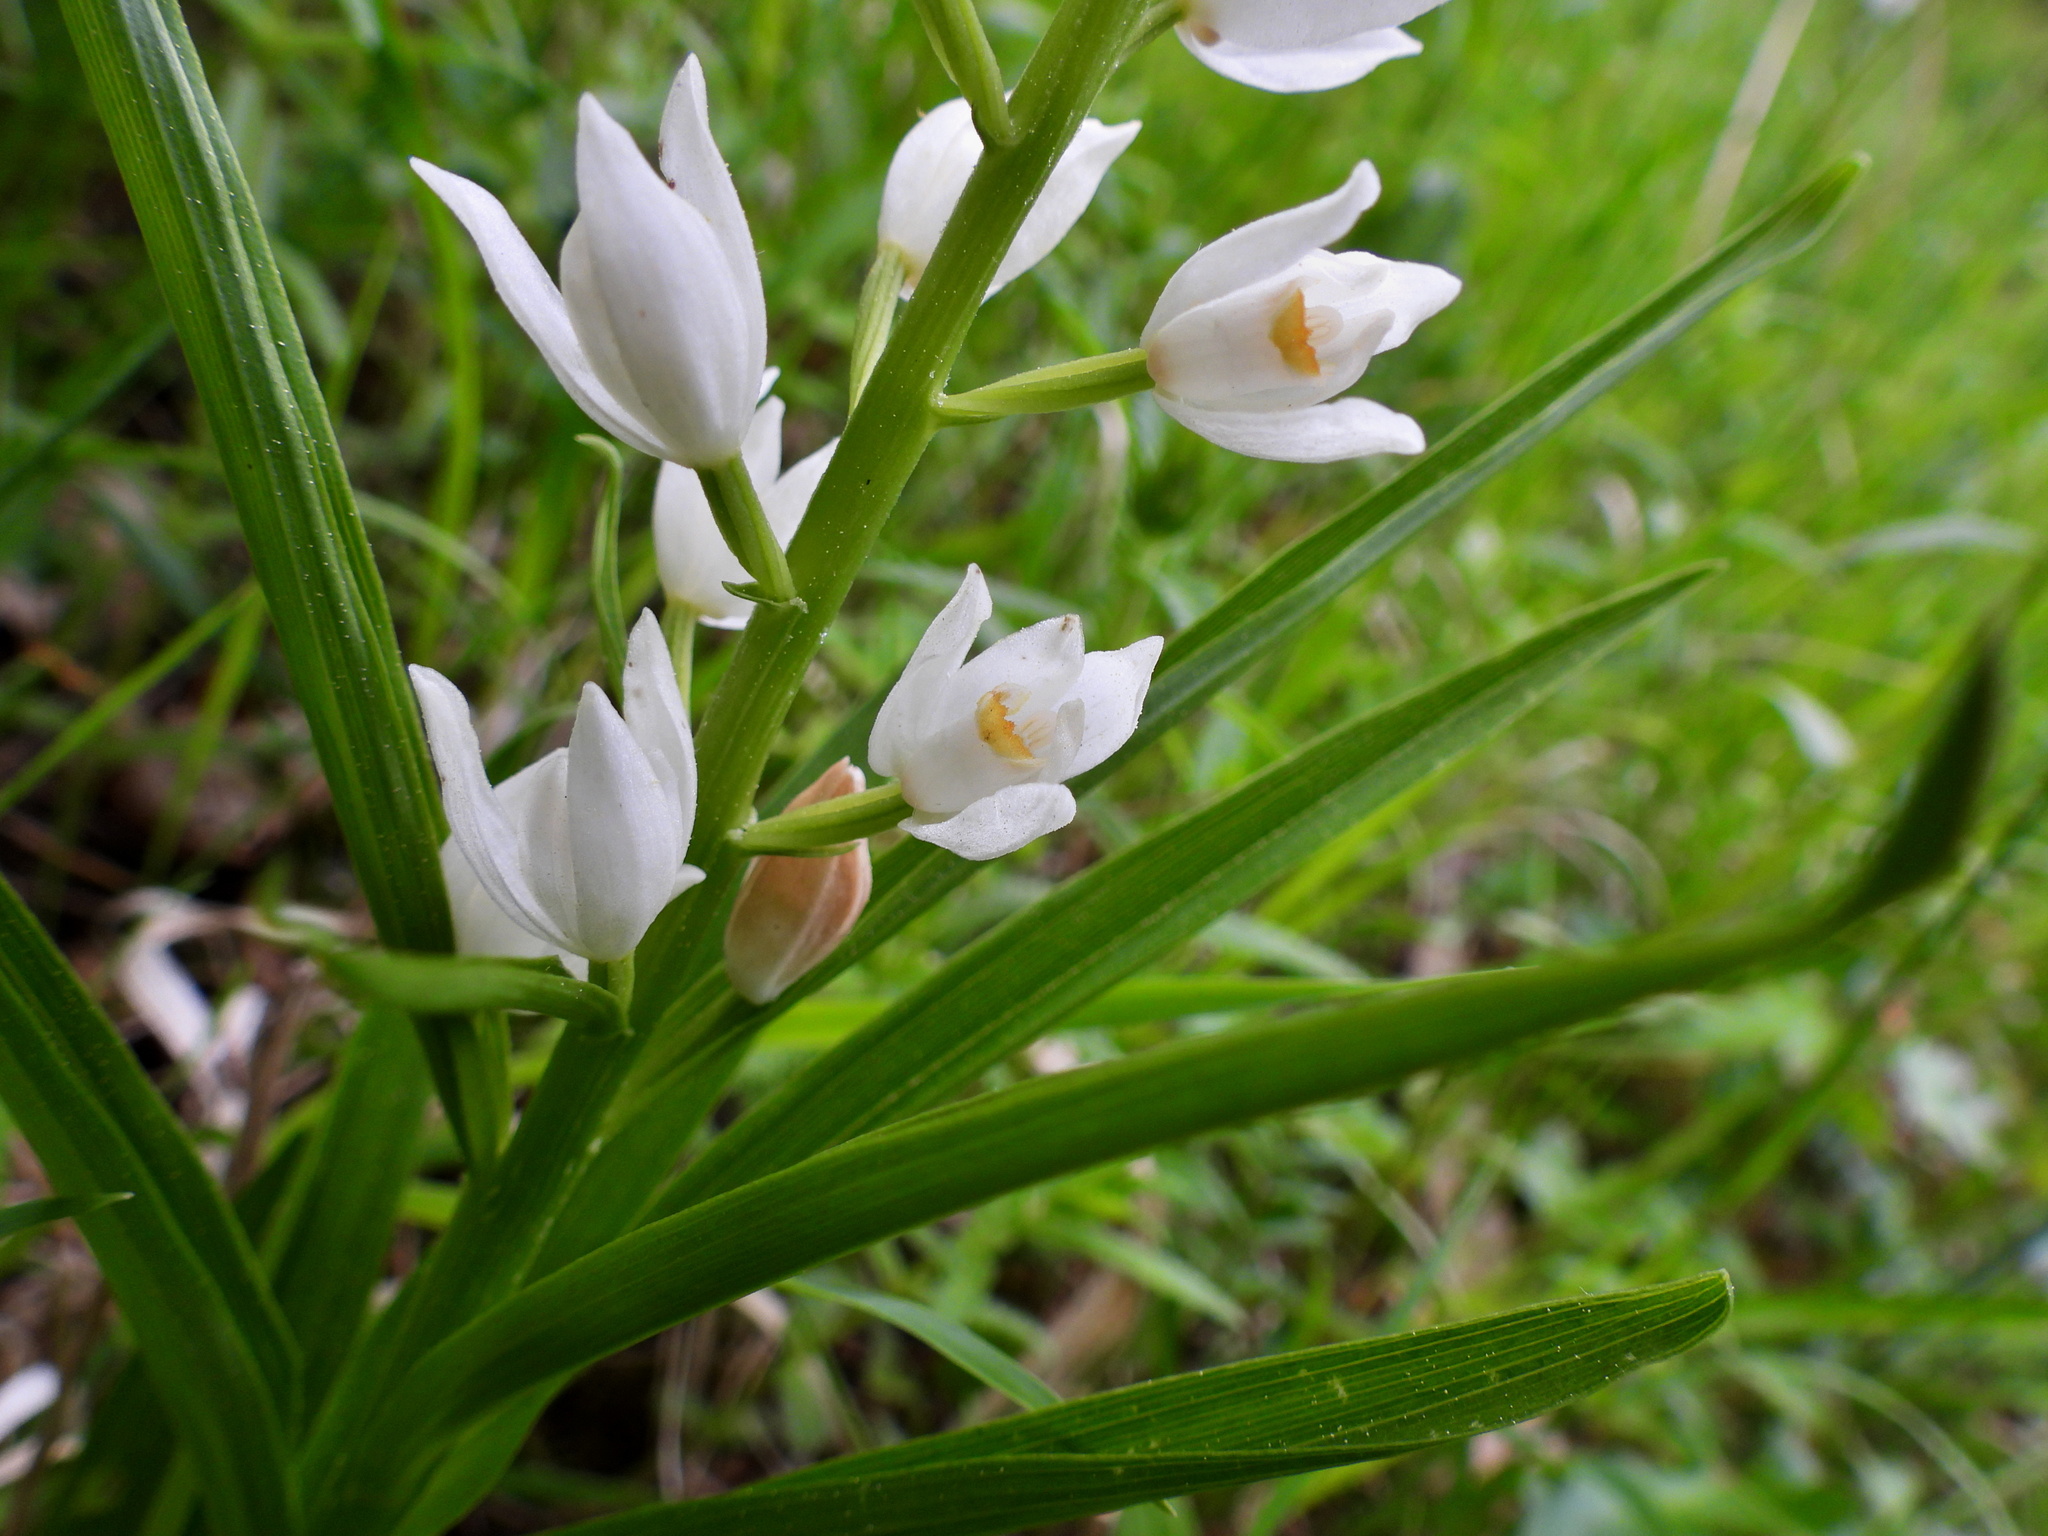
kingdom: Plantae
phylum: Tracheophyta
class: Liliopsida
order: Asparagales
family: Orchidaceae
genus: Cephalanthera
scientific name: Cephalanthera longifolia
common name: Narrow-leaved helleborine
